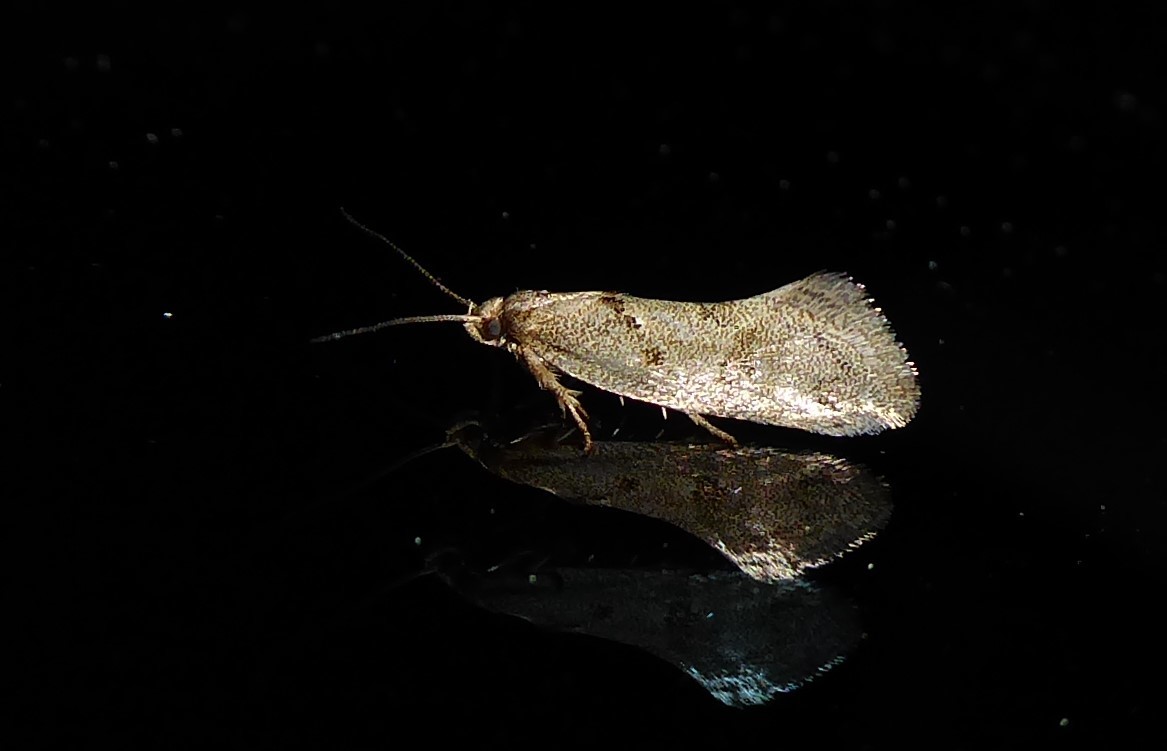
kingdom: Animalia
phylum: Arthropoda
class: Insecta
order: Lepidoptera
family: Oecophoridae
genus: Tingena
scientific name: Tingena brachyacma
